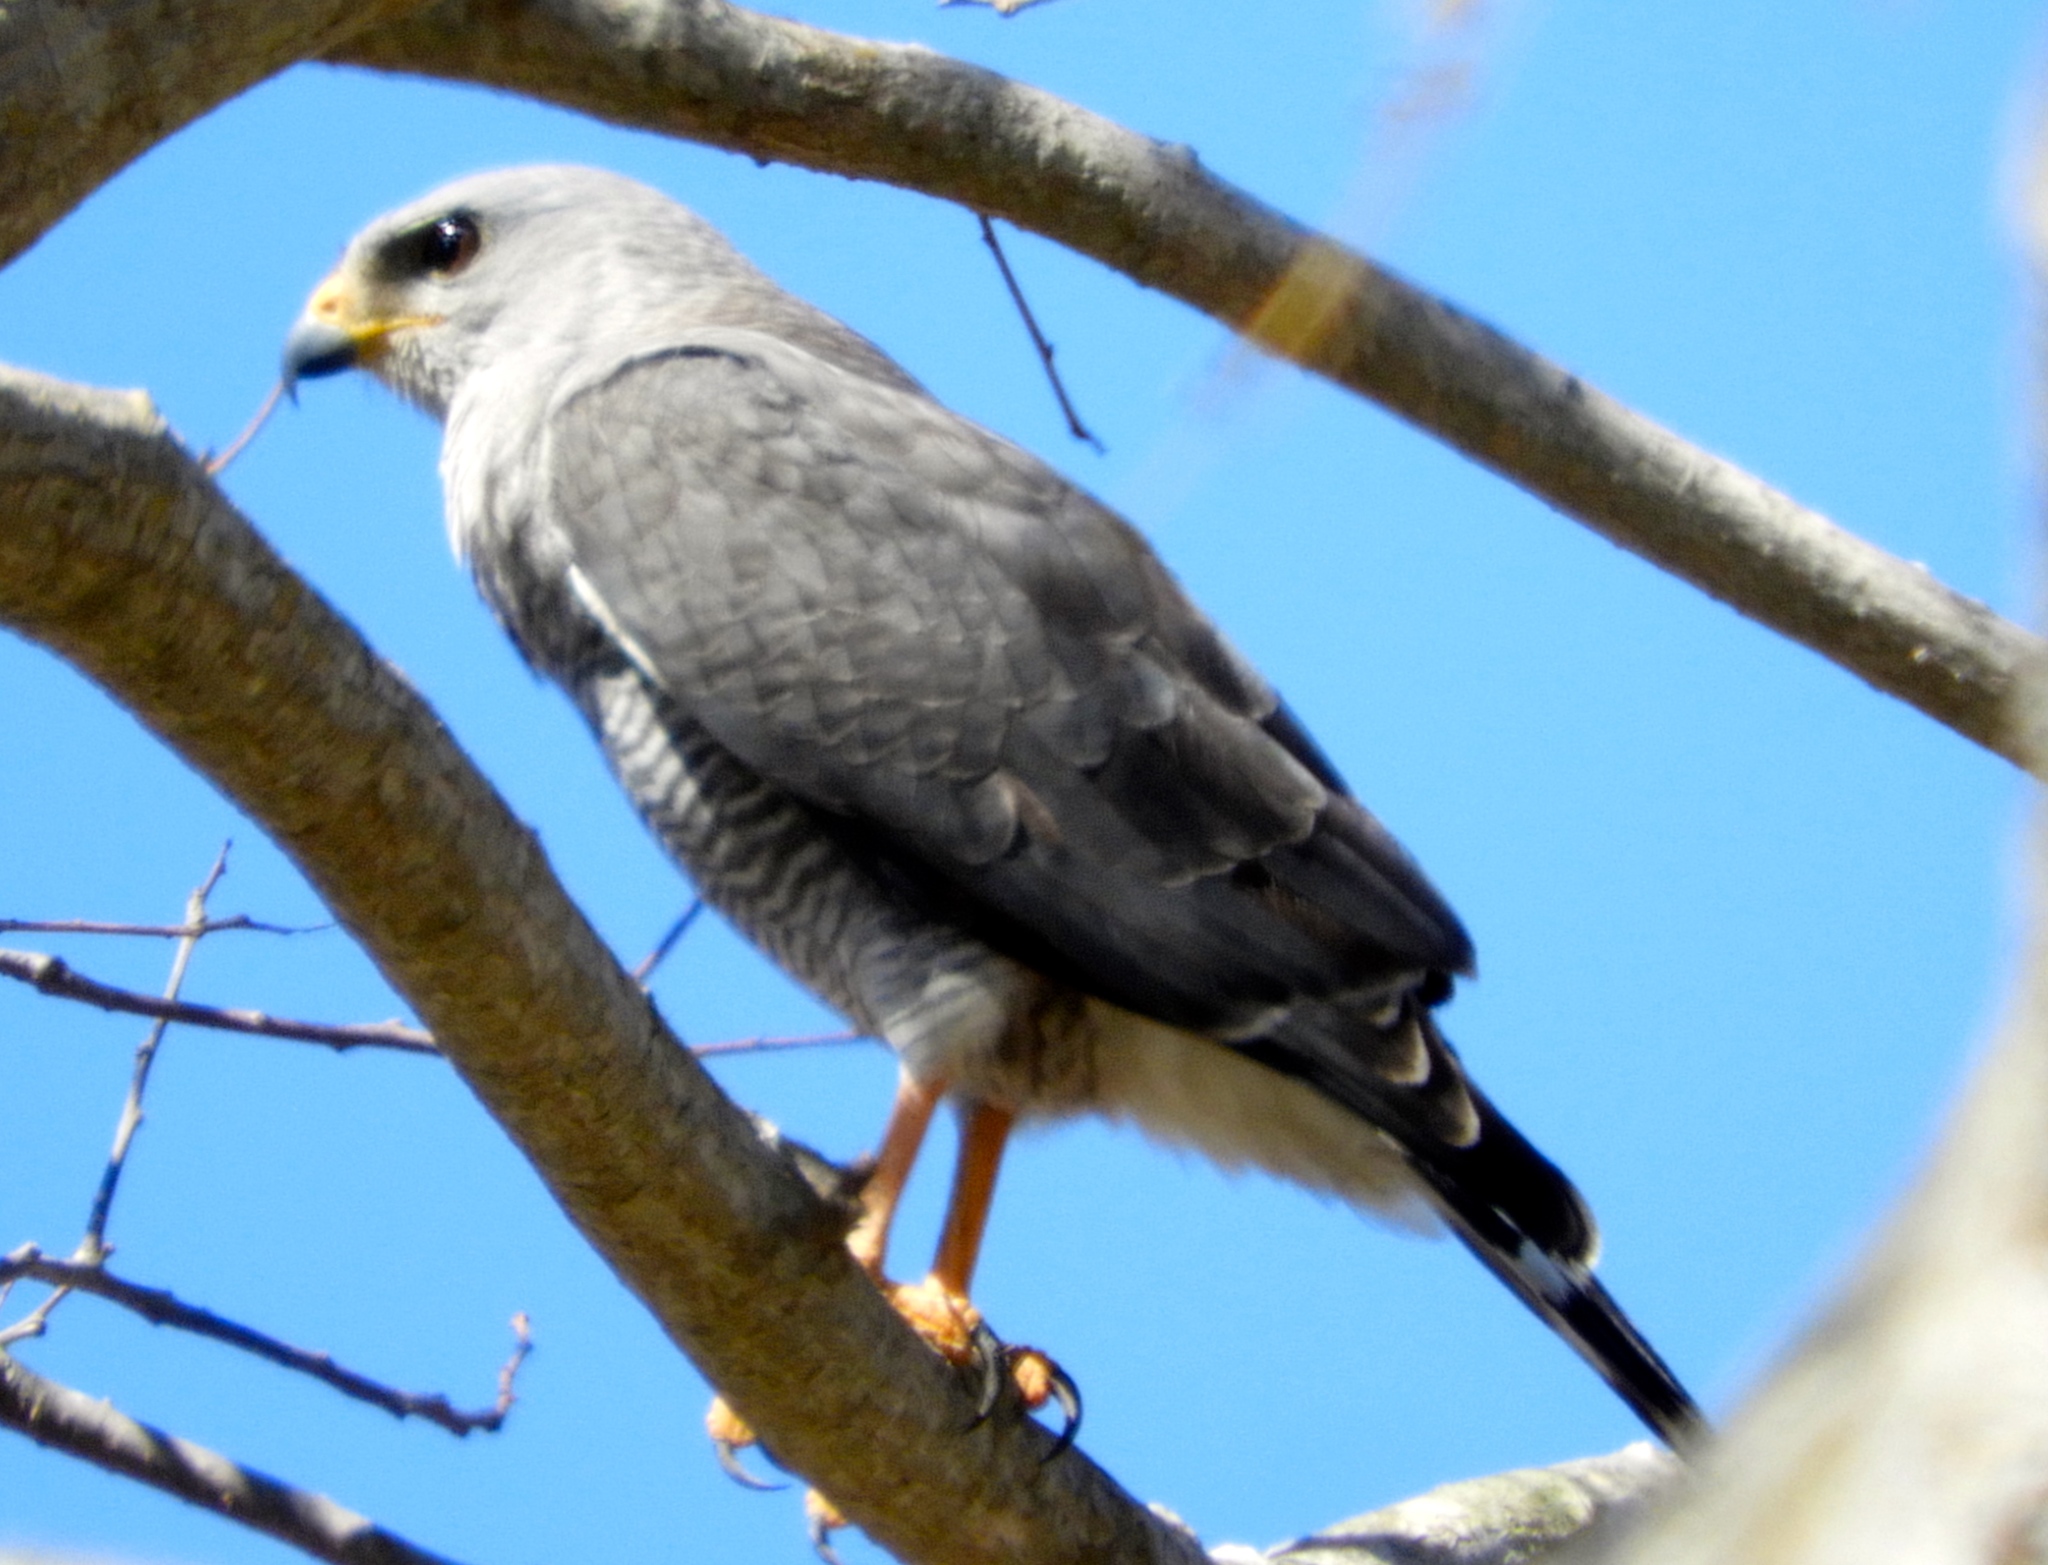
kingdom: Animalia
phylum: Chordata
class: Aves
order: Accipitriformes
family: Accipitridae
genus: Buteo
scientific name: Buteo nitidus
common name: Grey-lined hawk
